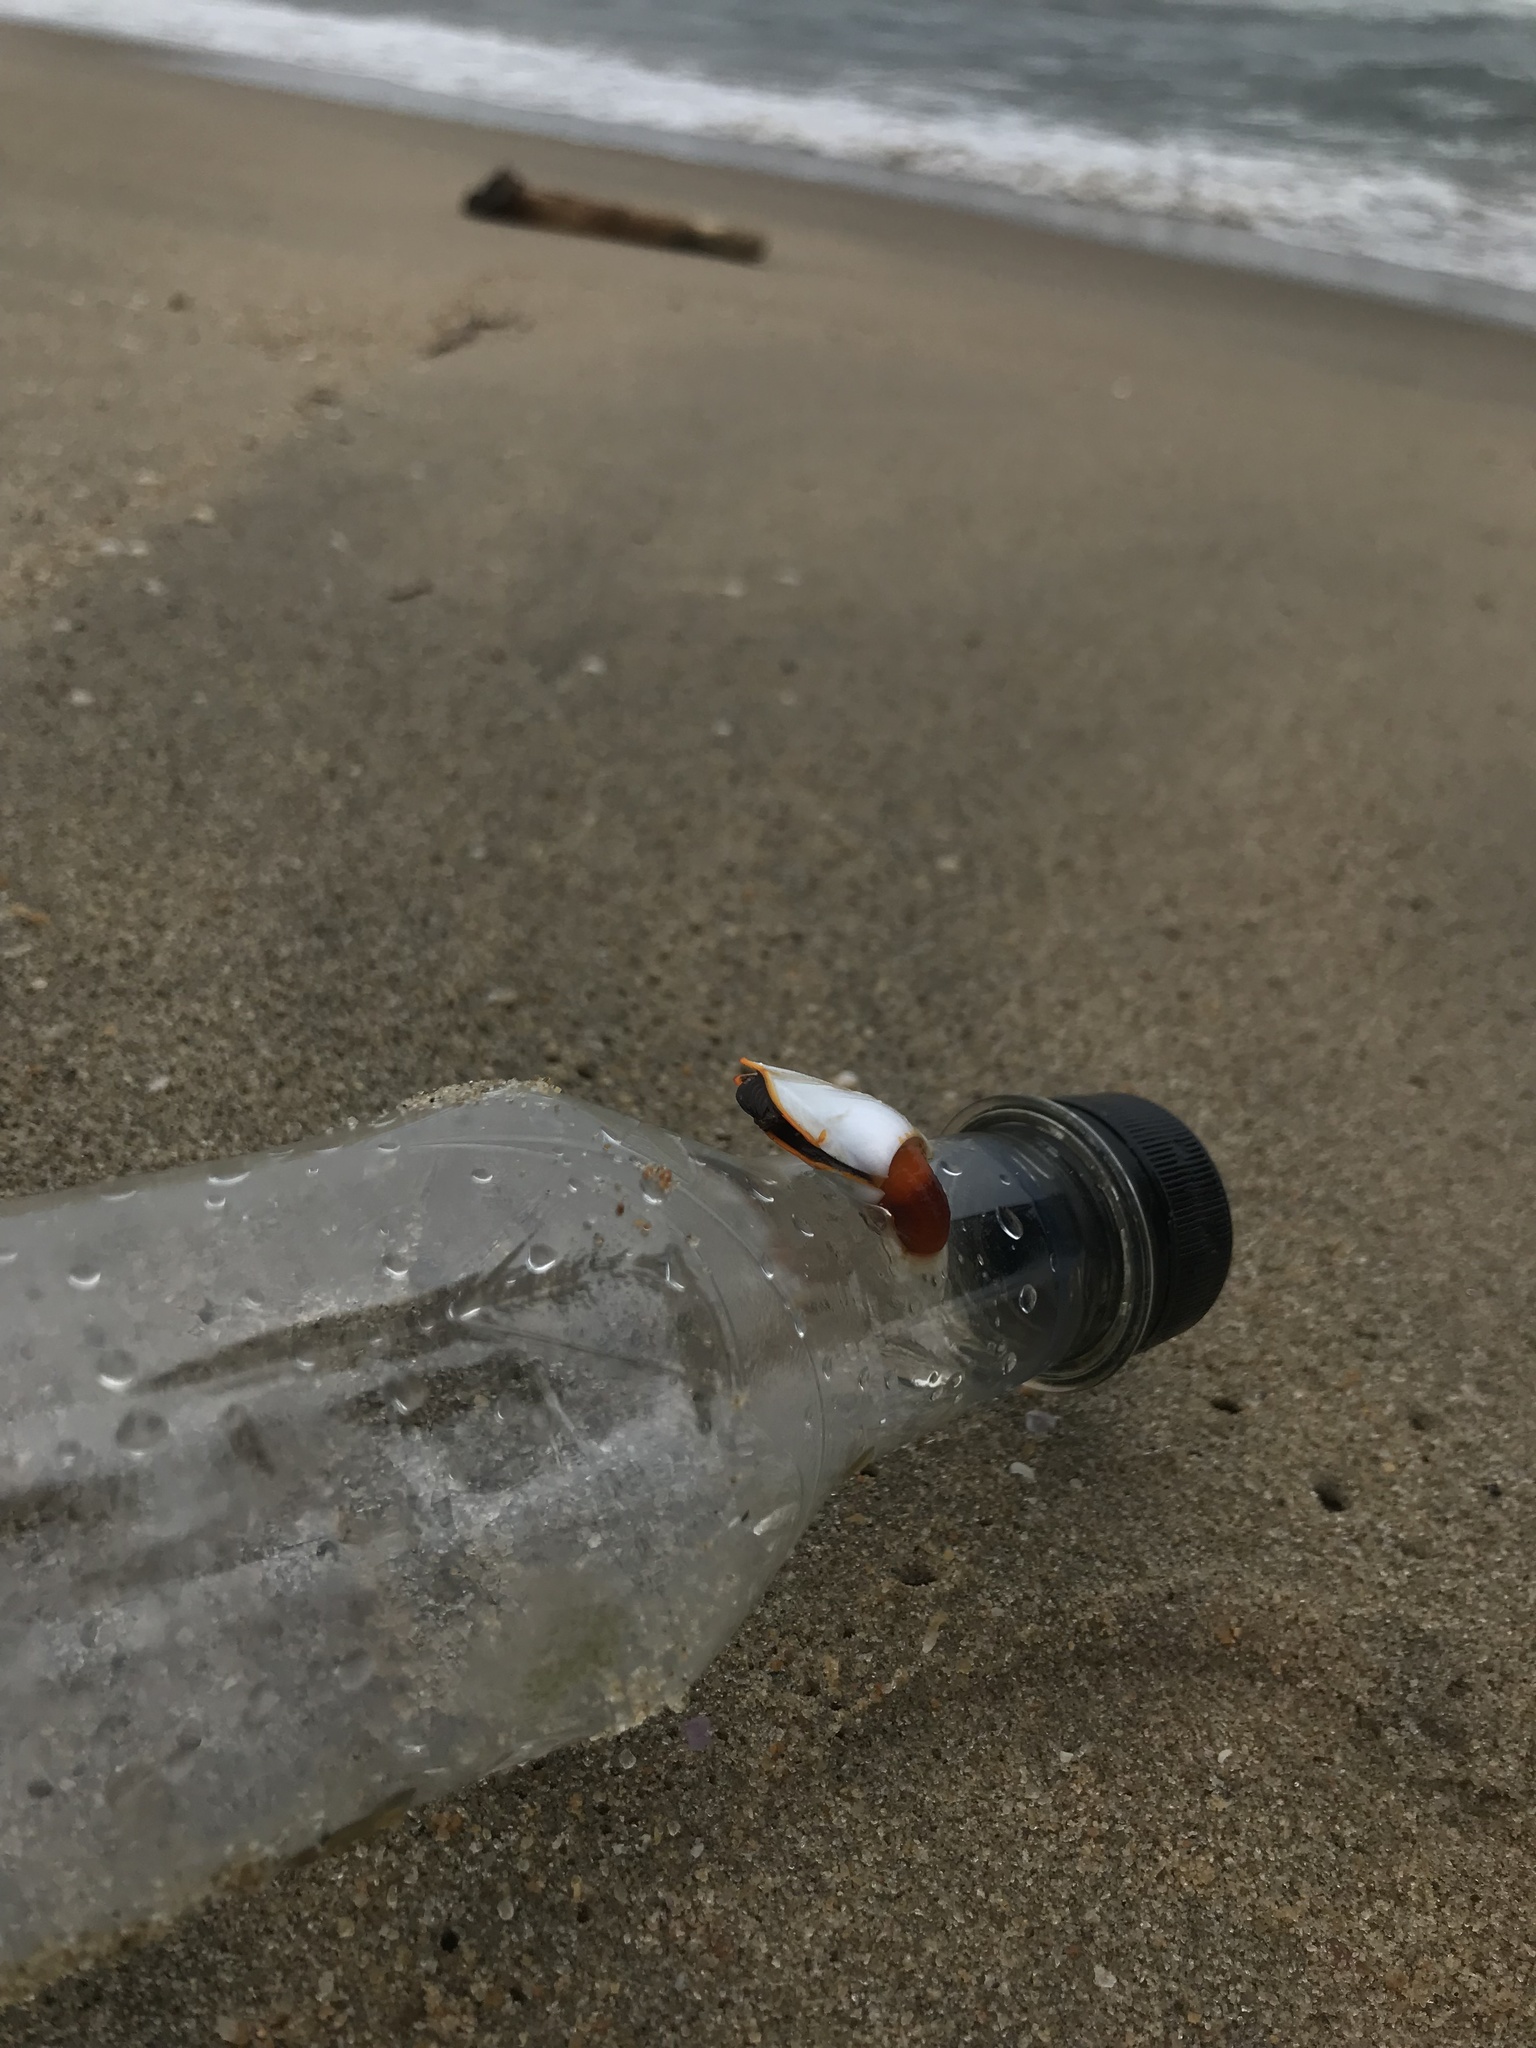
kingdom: Animalia
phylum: Arthropoda
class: Maxillopoda
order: Pedunculata
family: Lepadidae
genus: Lepas
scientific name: Lepas anserifera
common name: Goose barnacle
